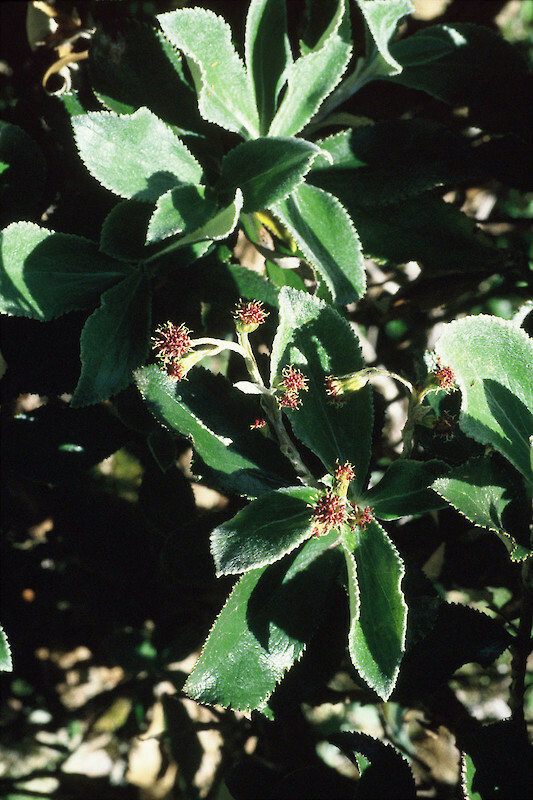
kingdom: Plantae
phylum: Tracheophyta
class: Magnoliopsida
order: Asterales
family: Asteraceae
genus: Macrolearia
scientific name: Macrolearia colensoi
